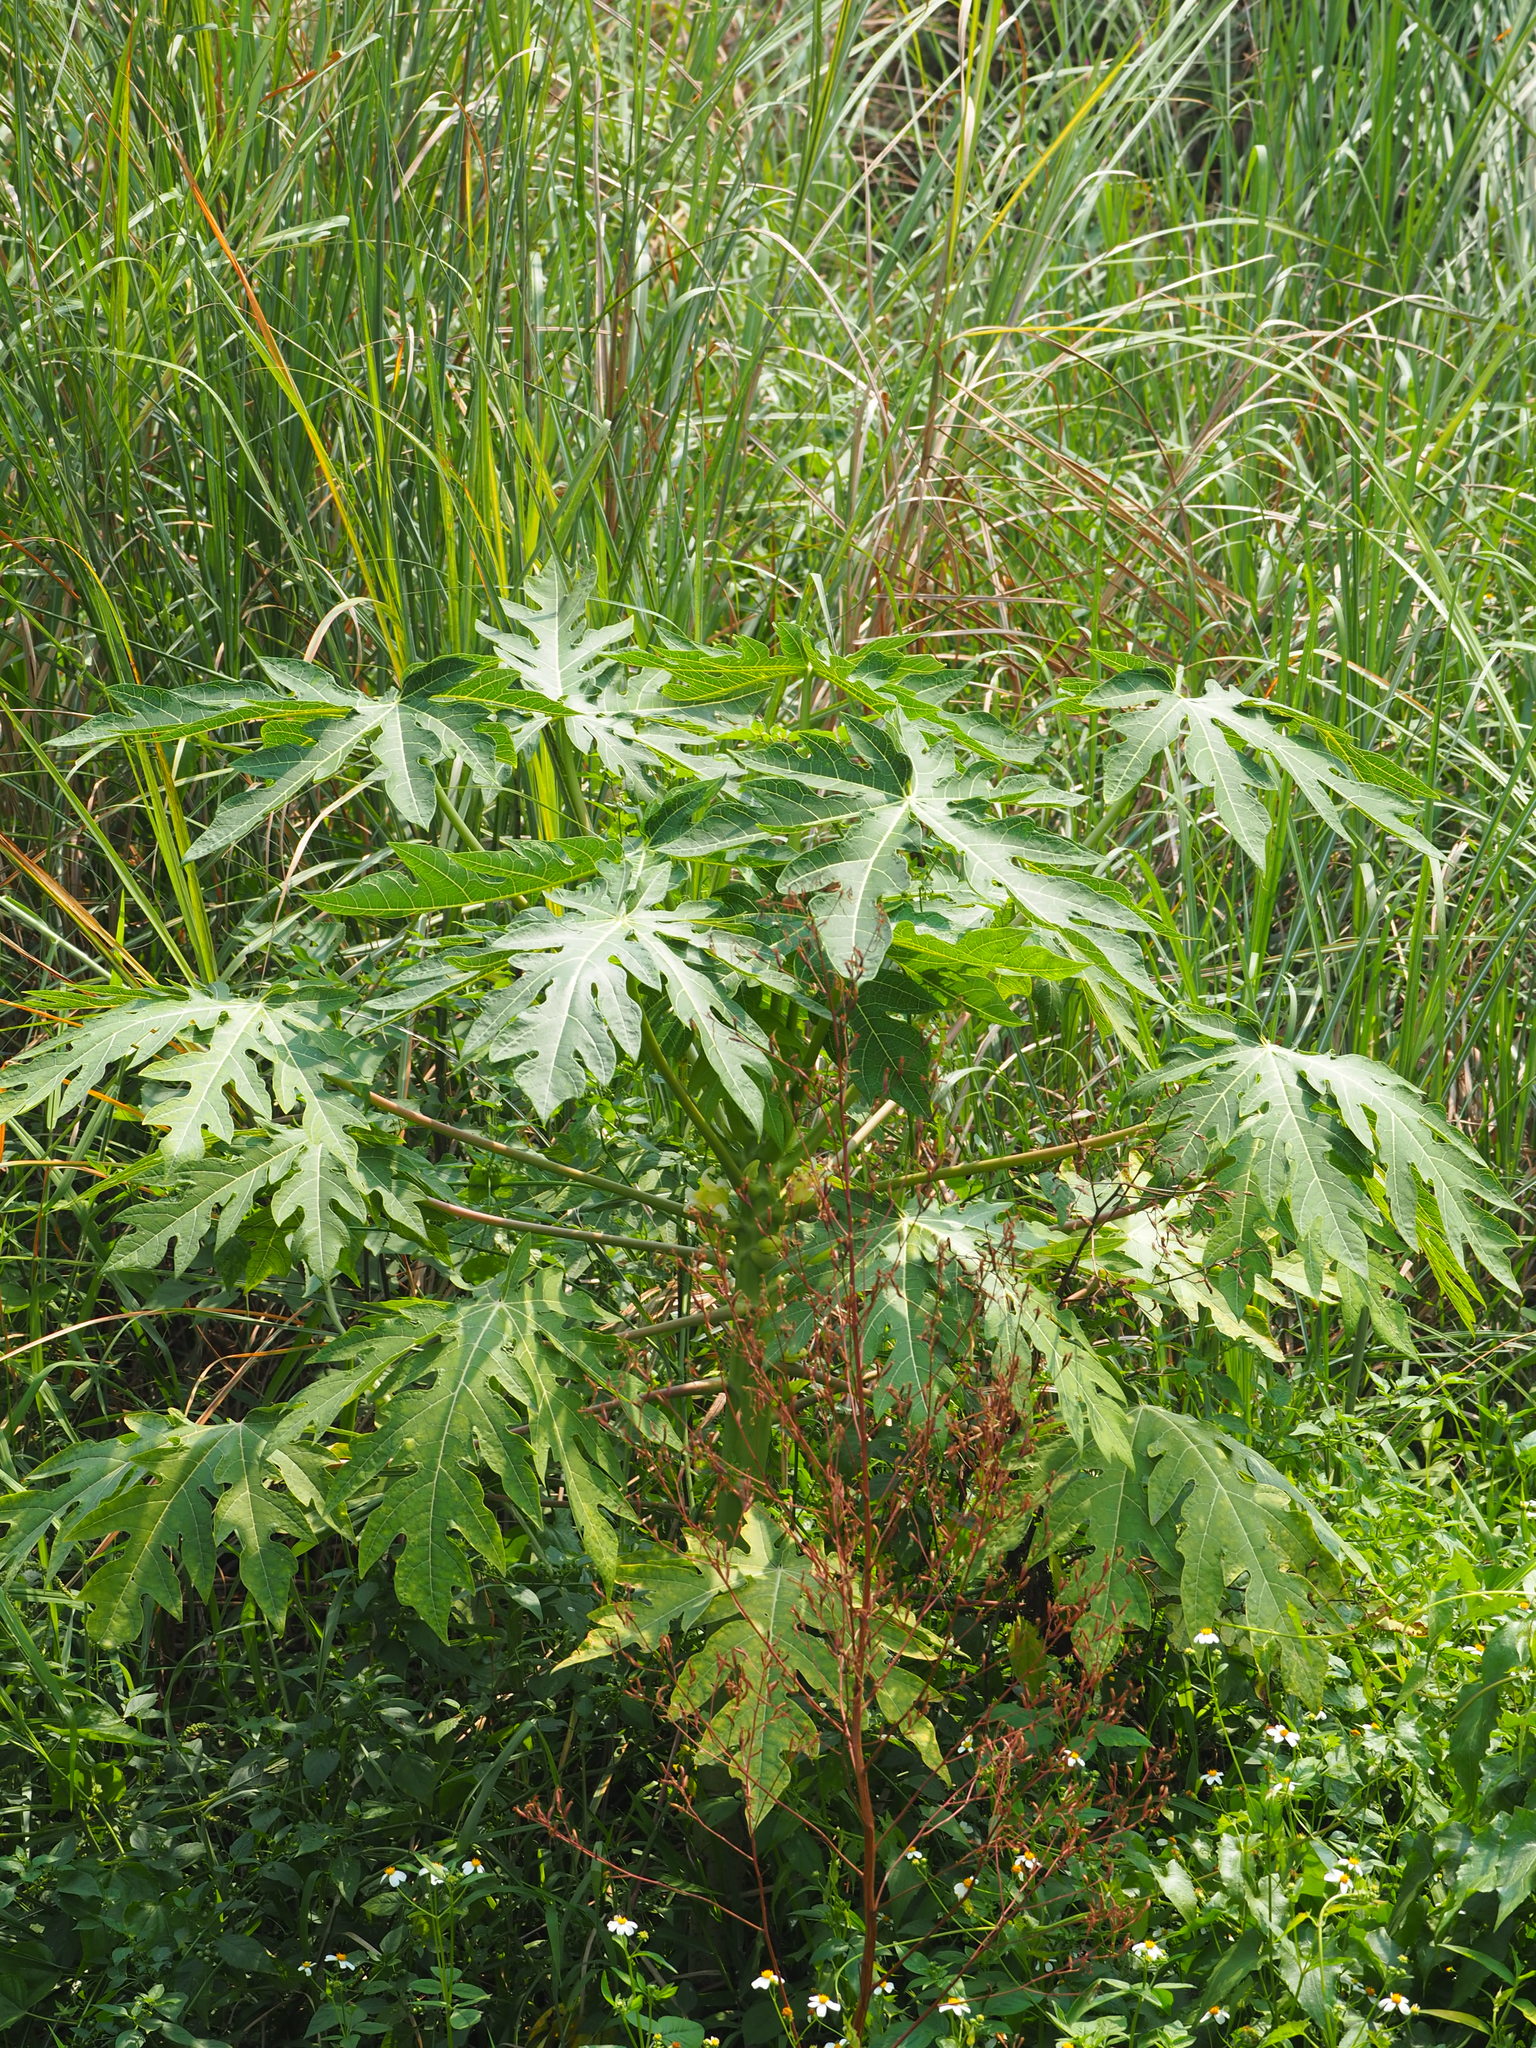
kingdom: Plantae
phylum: Tracheophyta
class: Magnoliopsida
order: Brassicales
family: Caricaceae
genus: Carica
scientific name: Carica papaya
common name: Papaya
